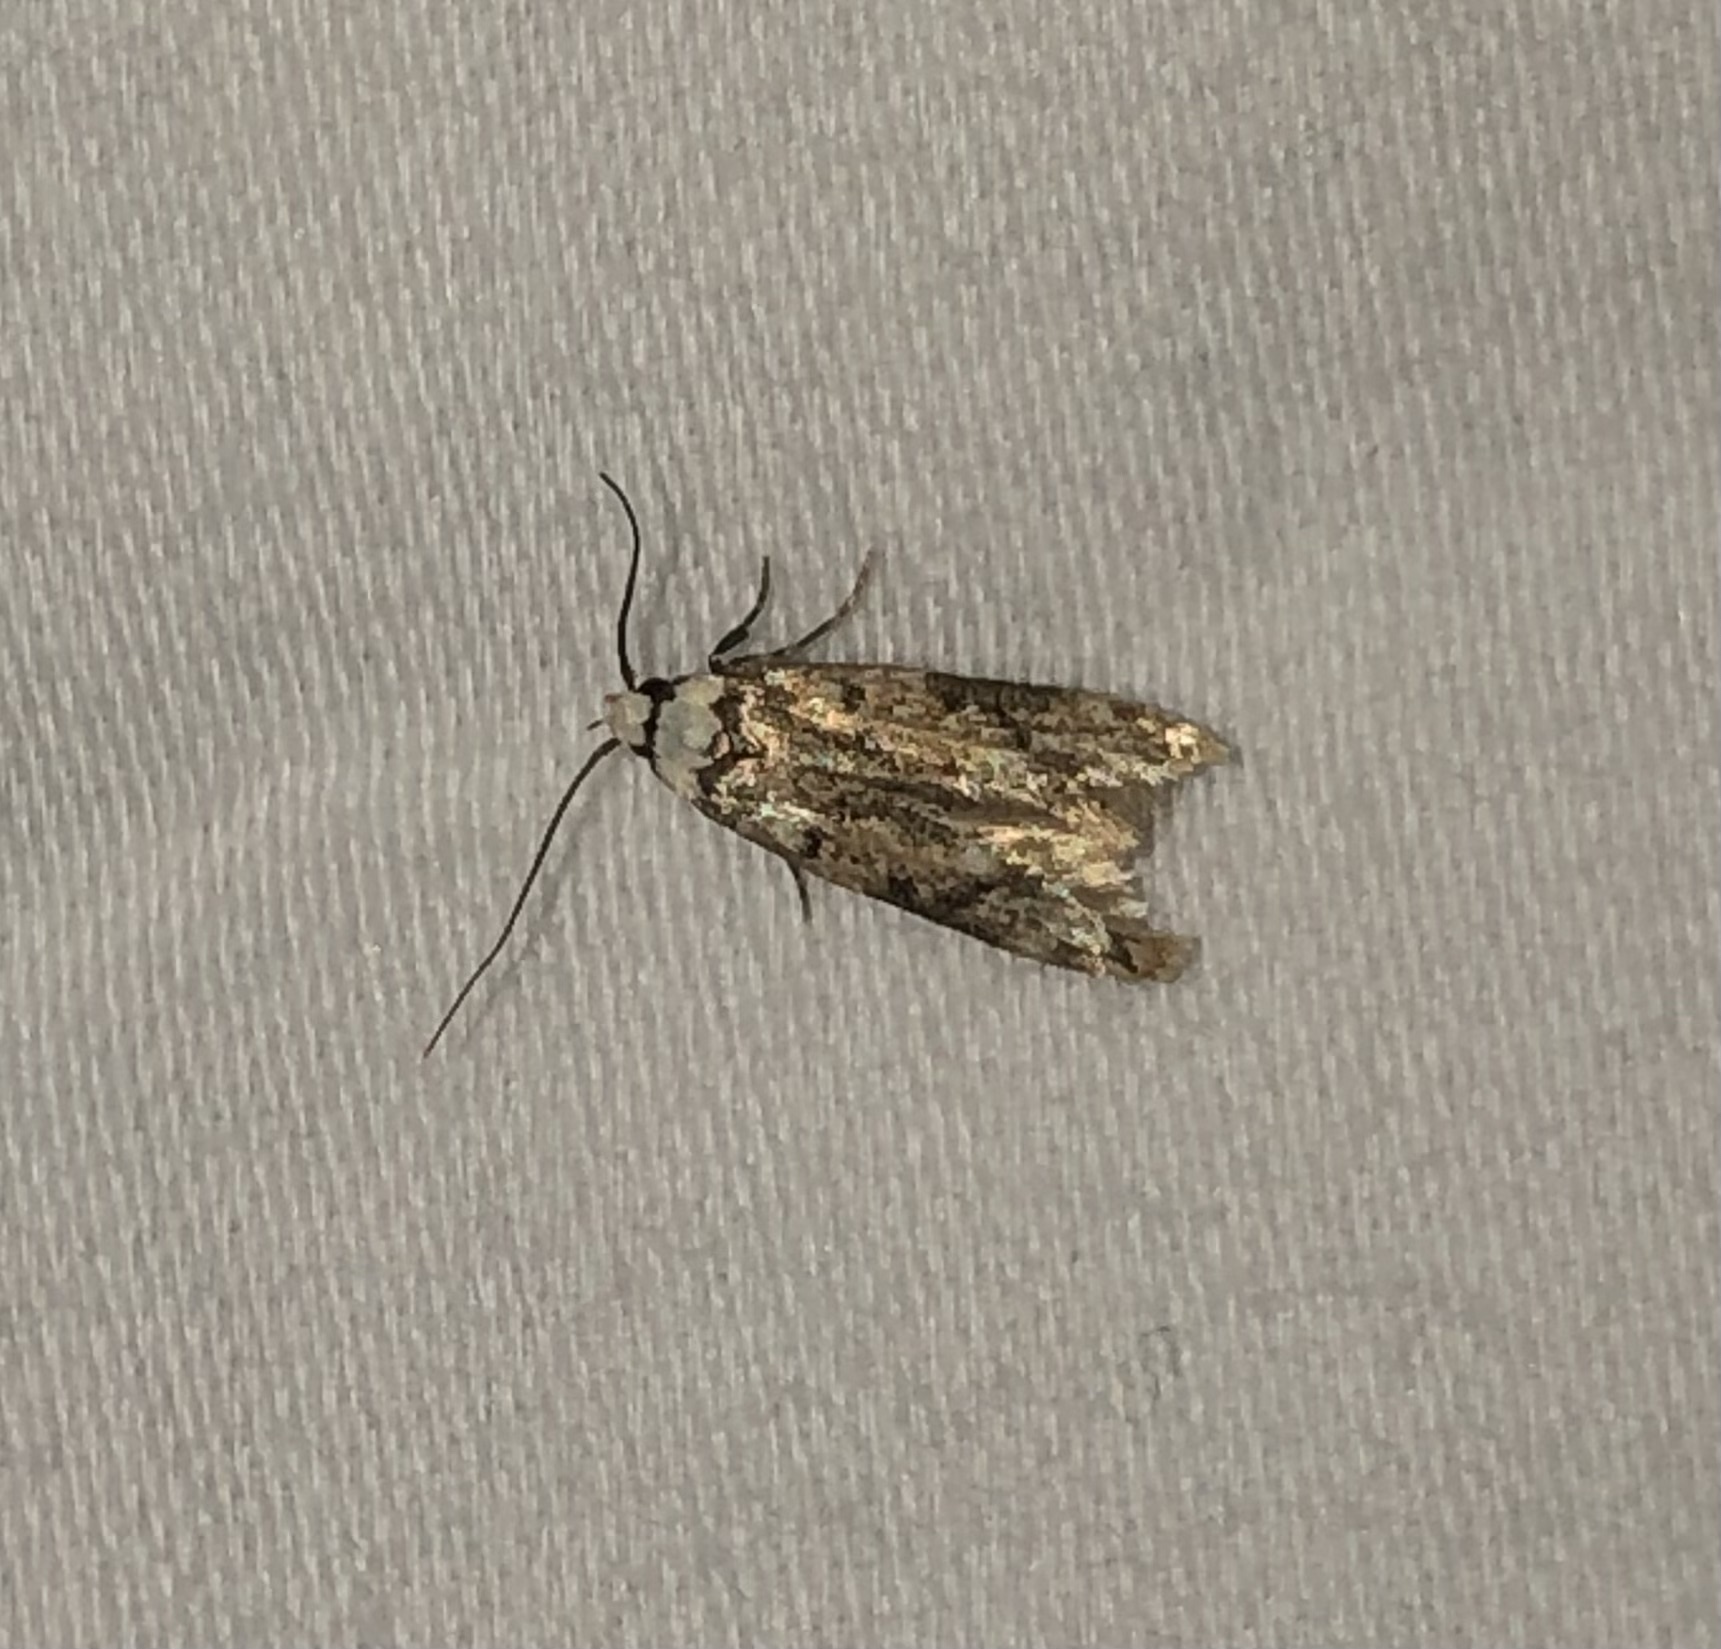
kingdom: Animalia
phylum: Arthropoda
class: Insecta
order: Lepidoptera
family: Oecophoridae
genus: Endrosis
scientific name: Endrosis sarcitrella
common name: White-shouldered house moth
